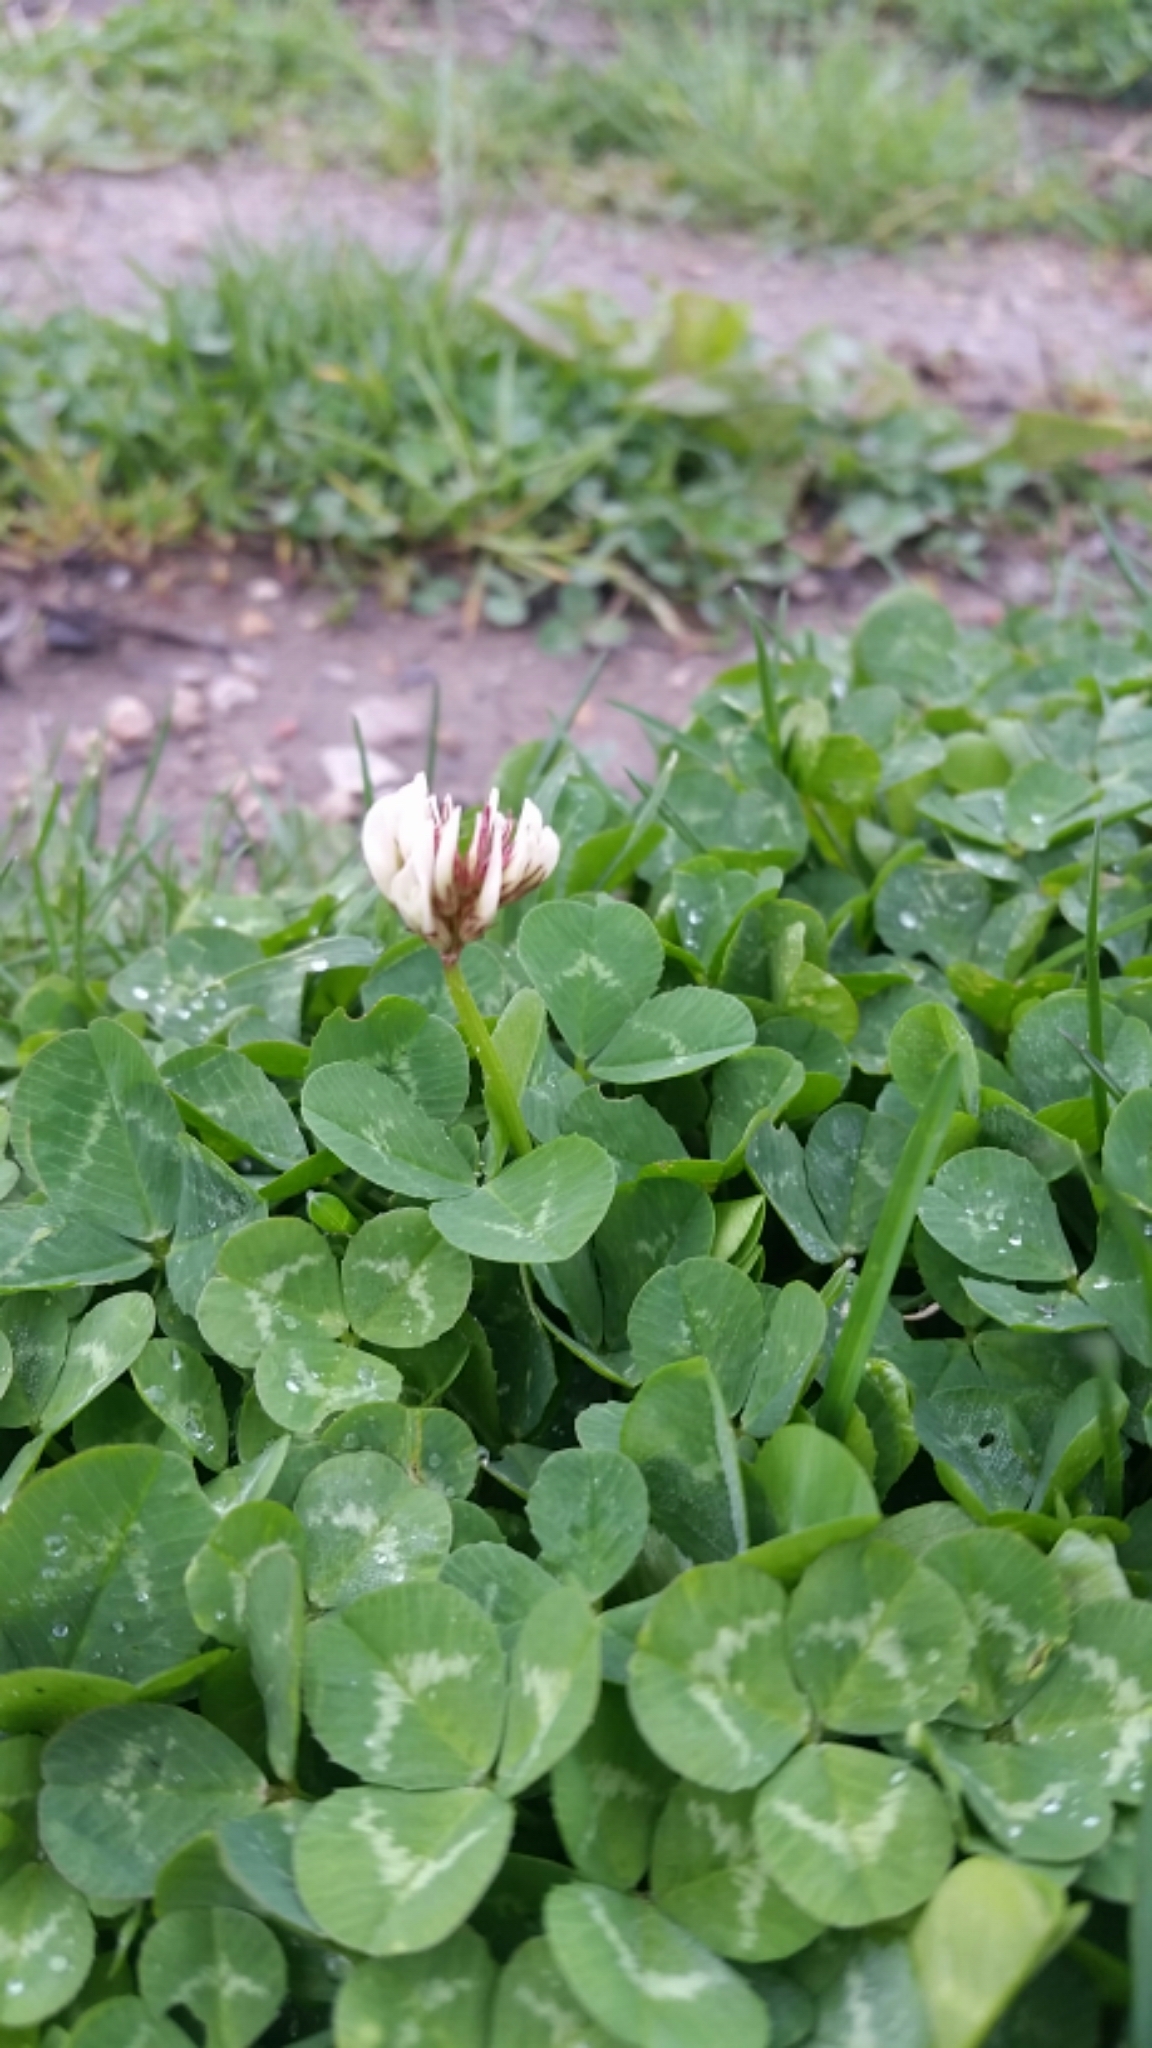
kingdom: Plantae
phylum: Tracheophyta
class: Magnoliopsida
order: Fabales
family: Fabaceae
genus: Trifolium
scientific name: Trifolium repens
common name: White clover
